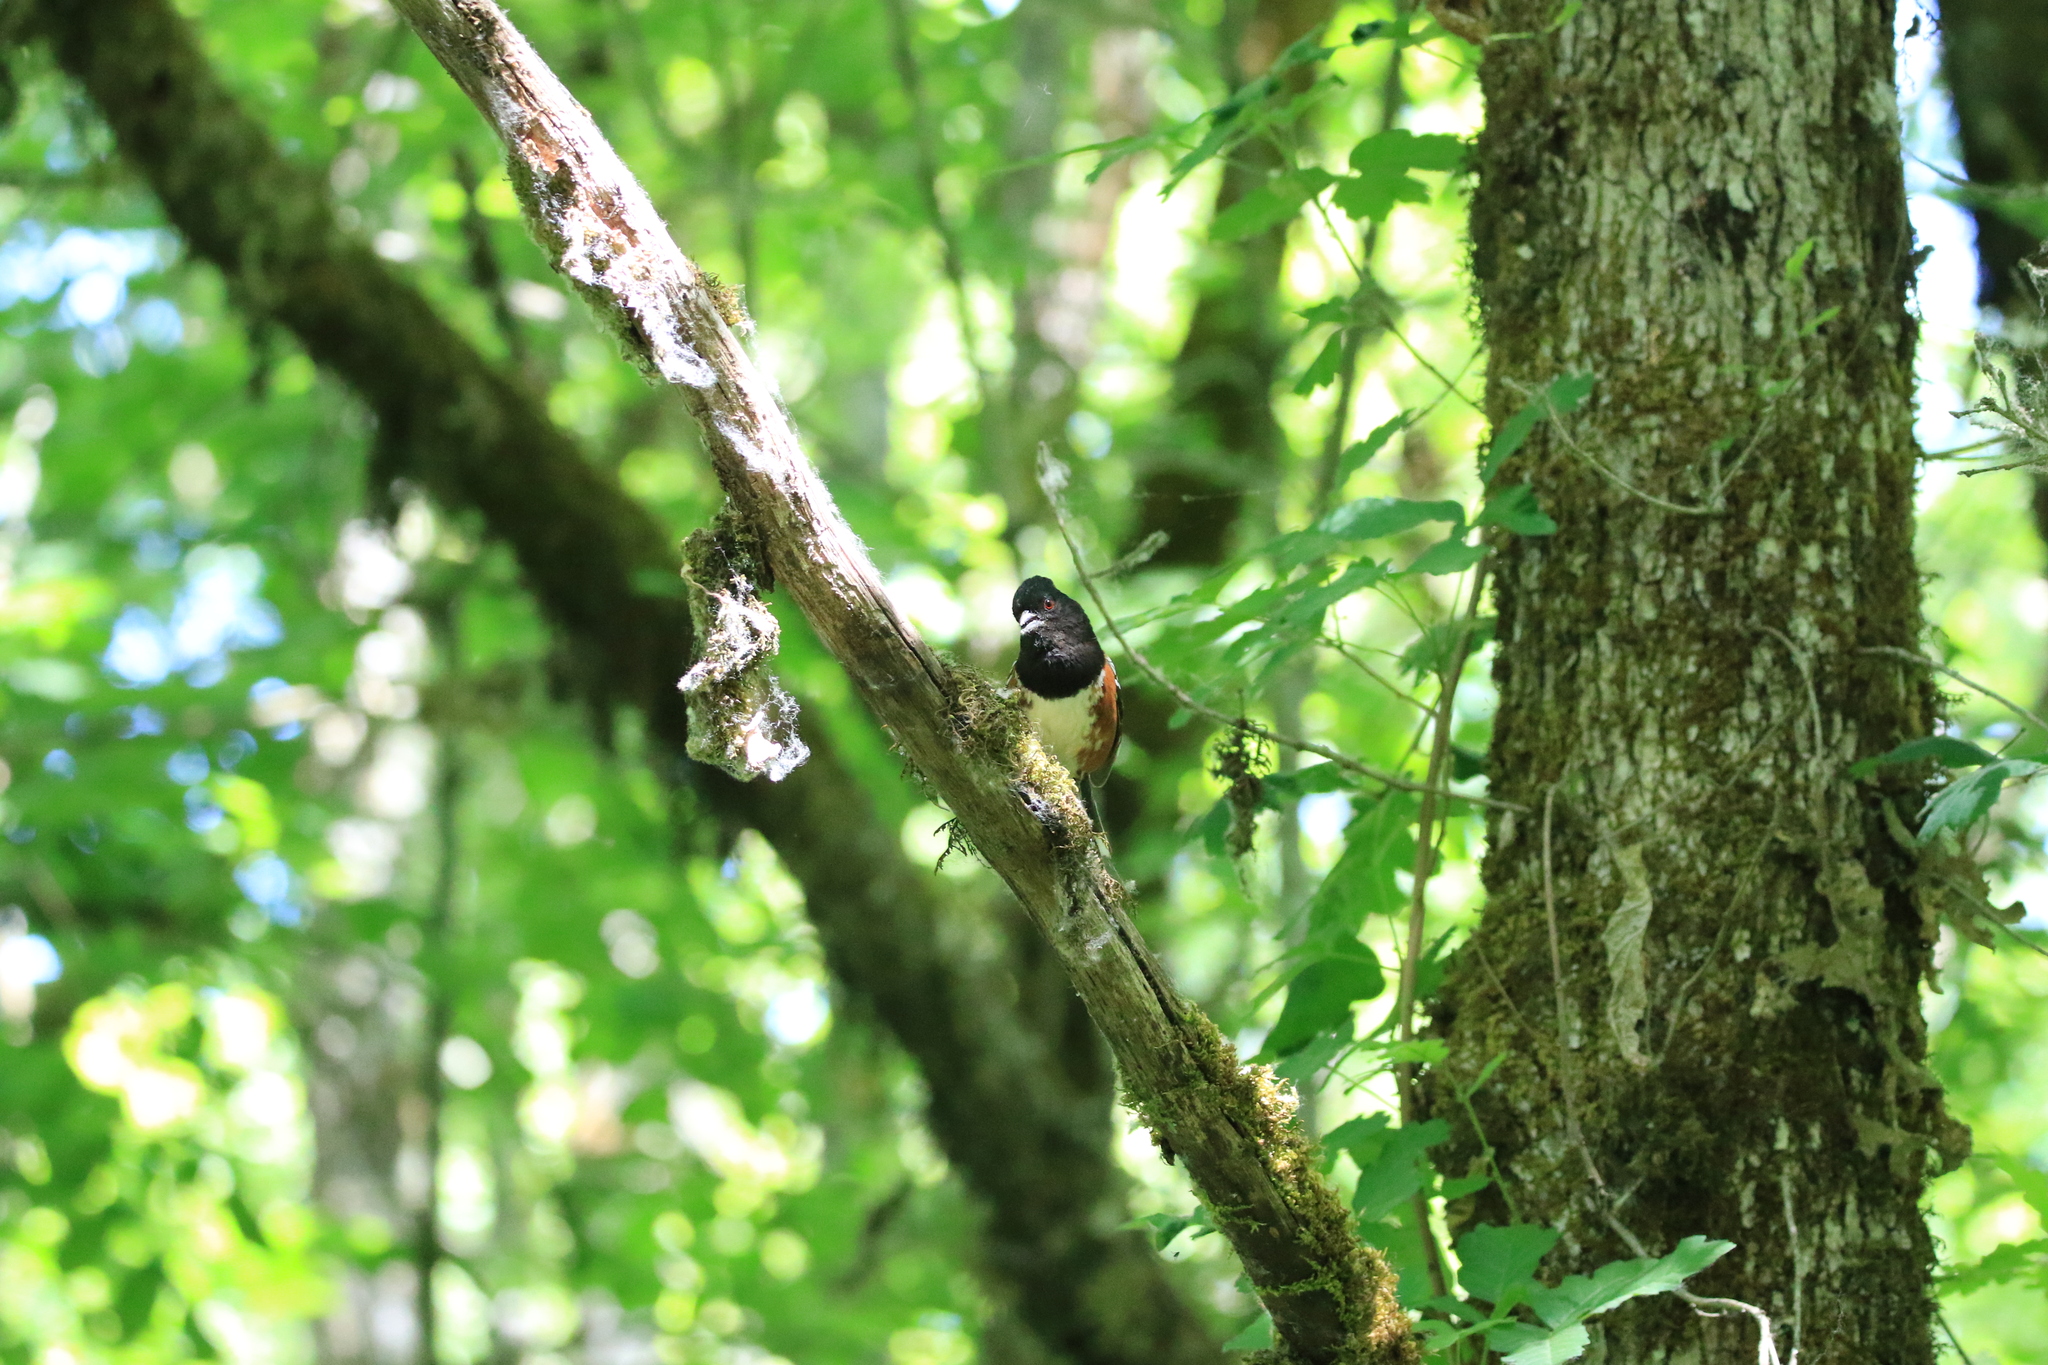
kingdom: Animalia
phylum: Chordata
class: Aves
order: Passeriformes
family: Passerellidae
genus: Pipilo
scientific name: Pipilo maculatus
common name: Spotted towhee
